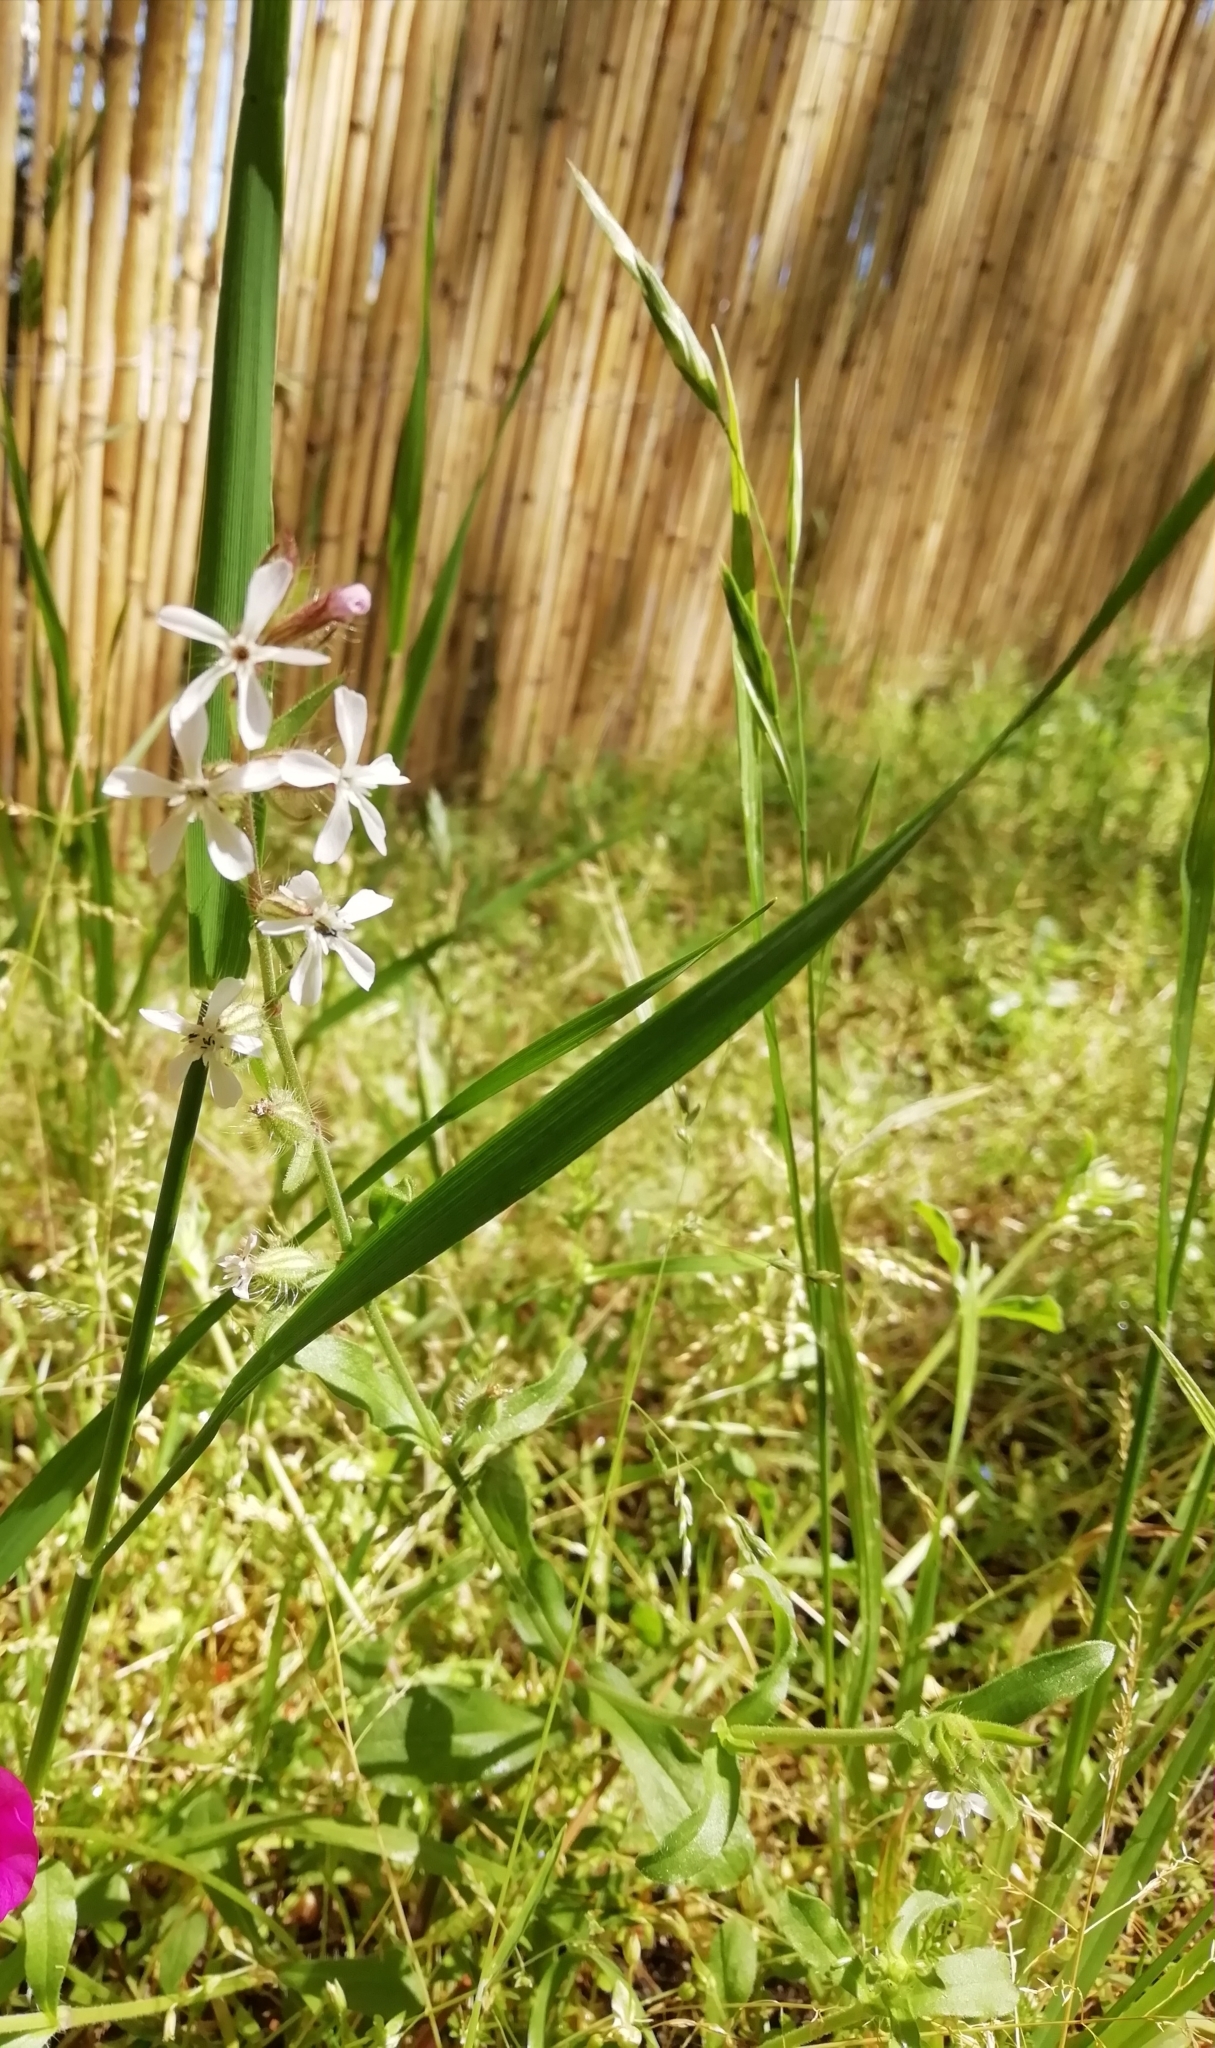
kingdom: Plantae
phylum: Tracheophyta
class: Magnoliopsida
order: Caryophyllales
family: Caryophyllaceae
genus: Silene
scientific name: Silene gallica
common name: Small-flowered catchfly
